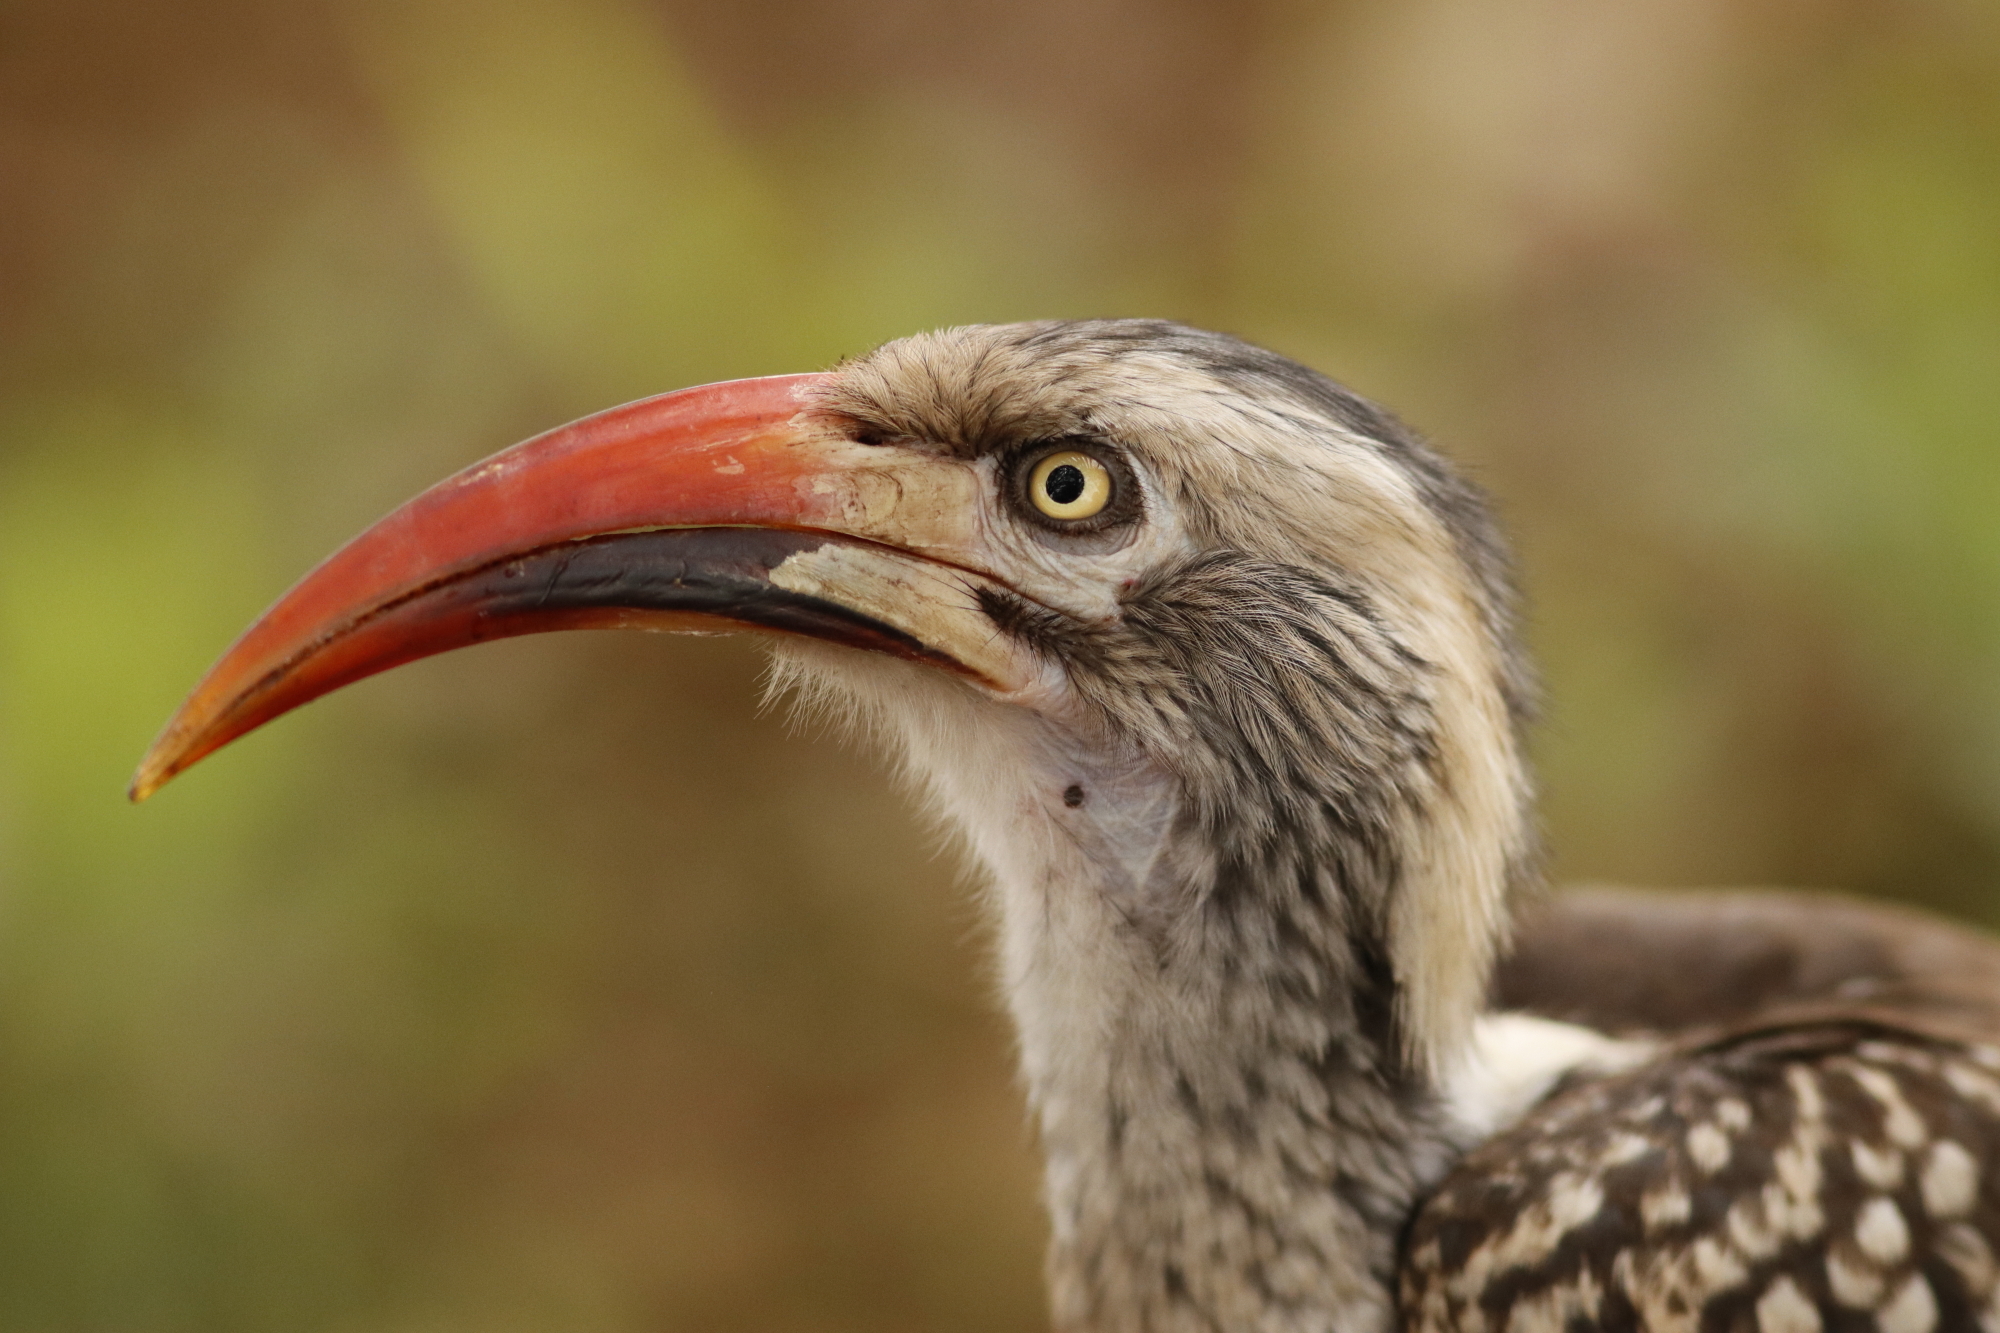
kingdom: Animalia
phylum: Chordata
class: Aves
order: Bucerotiformes
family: Bucerotidae
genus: Tockus
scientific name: Tockus rufirostris
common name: Southern red-billed hornbill
